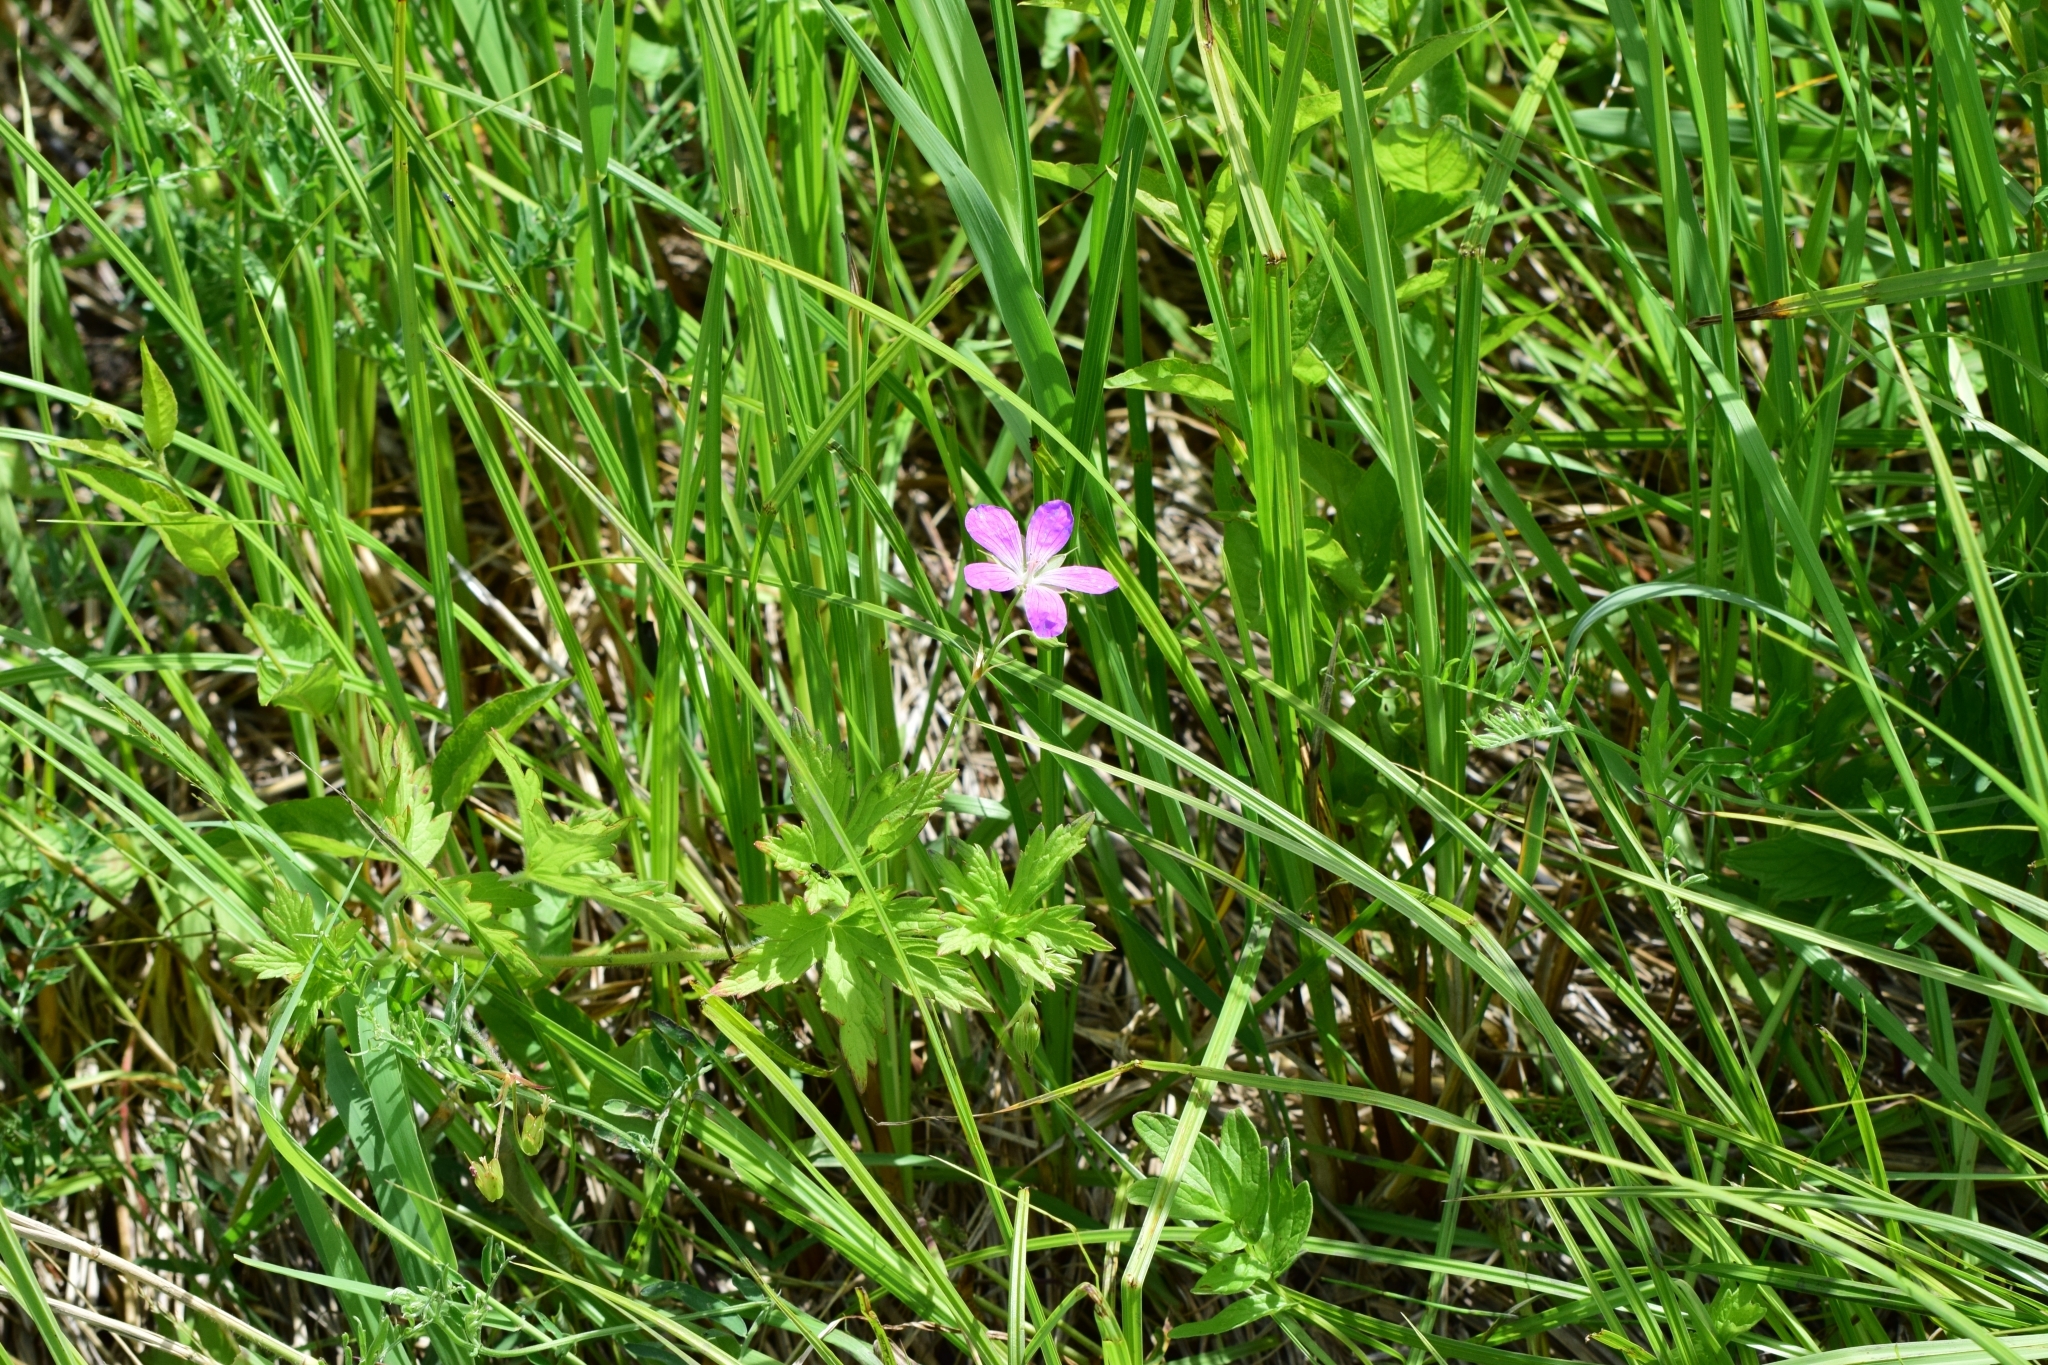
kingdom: Plantae
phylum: Tracheophyta
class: Magnoliopsida
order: Geraniales
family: Geraniaceae
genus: Geranium
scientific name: Geranium palustre
